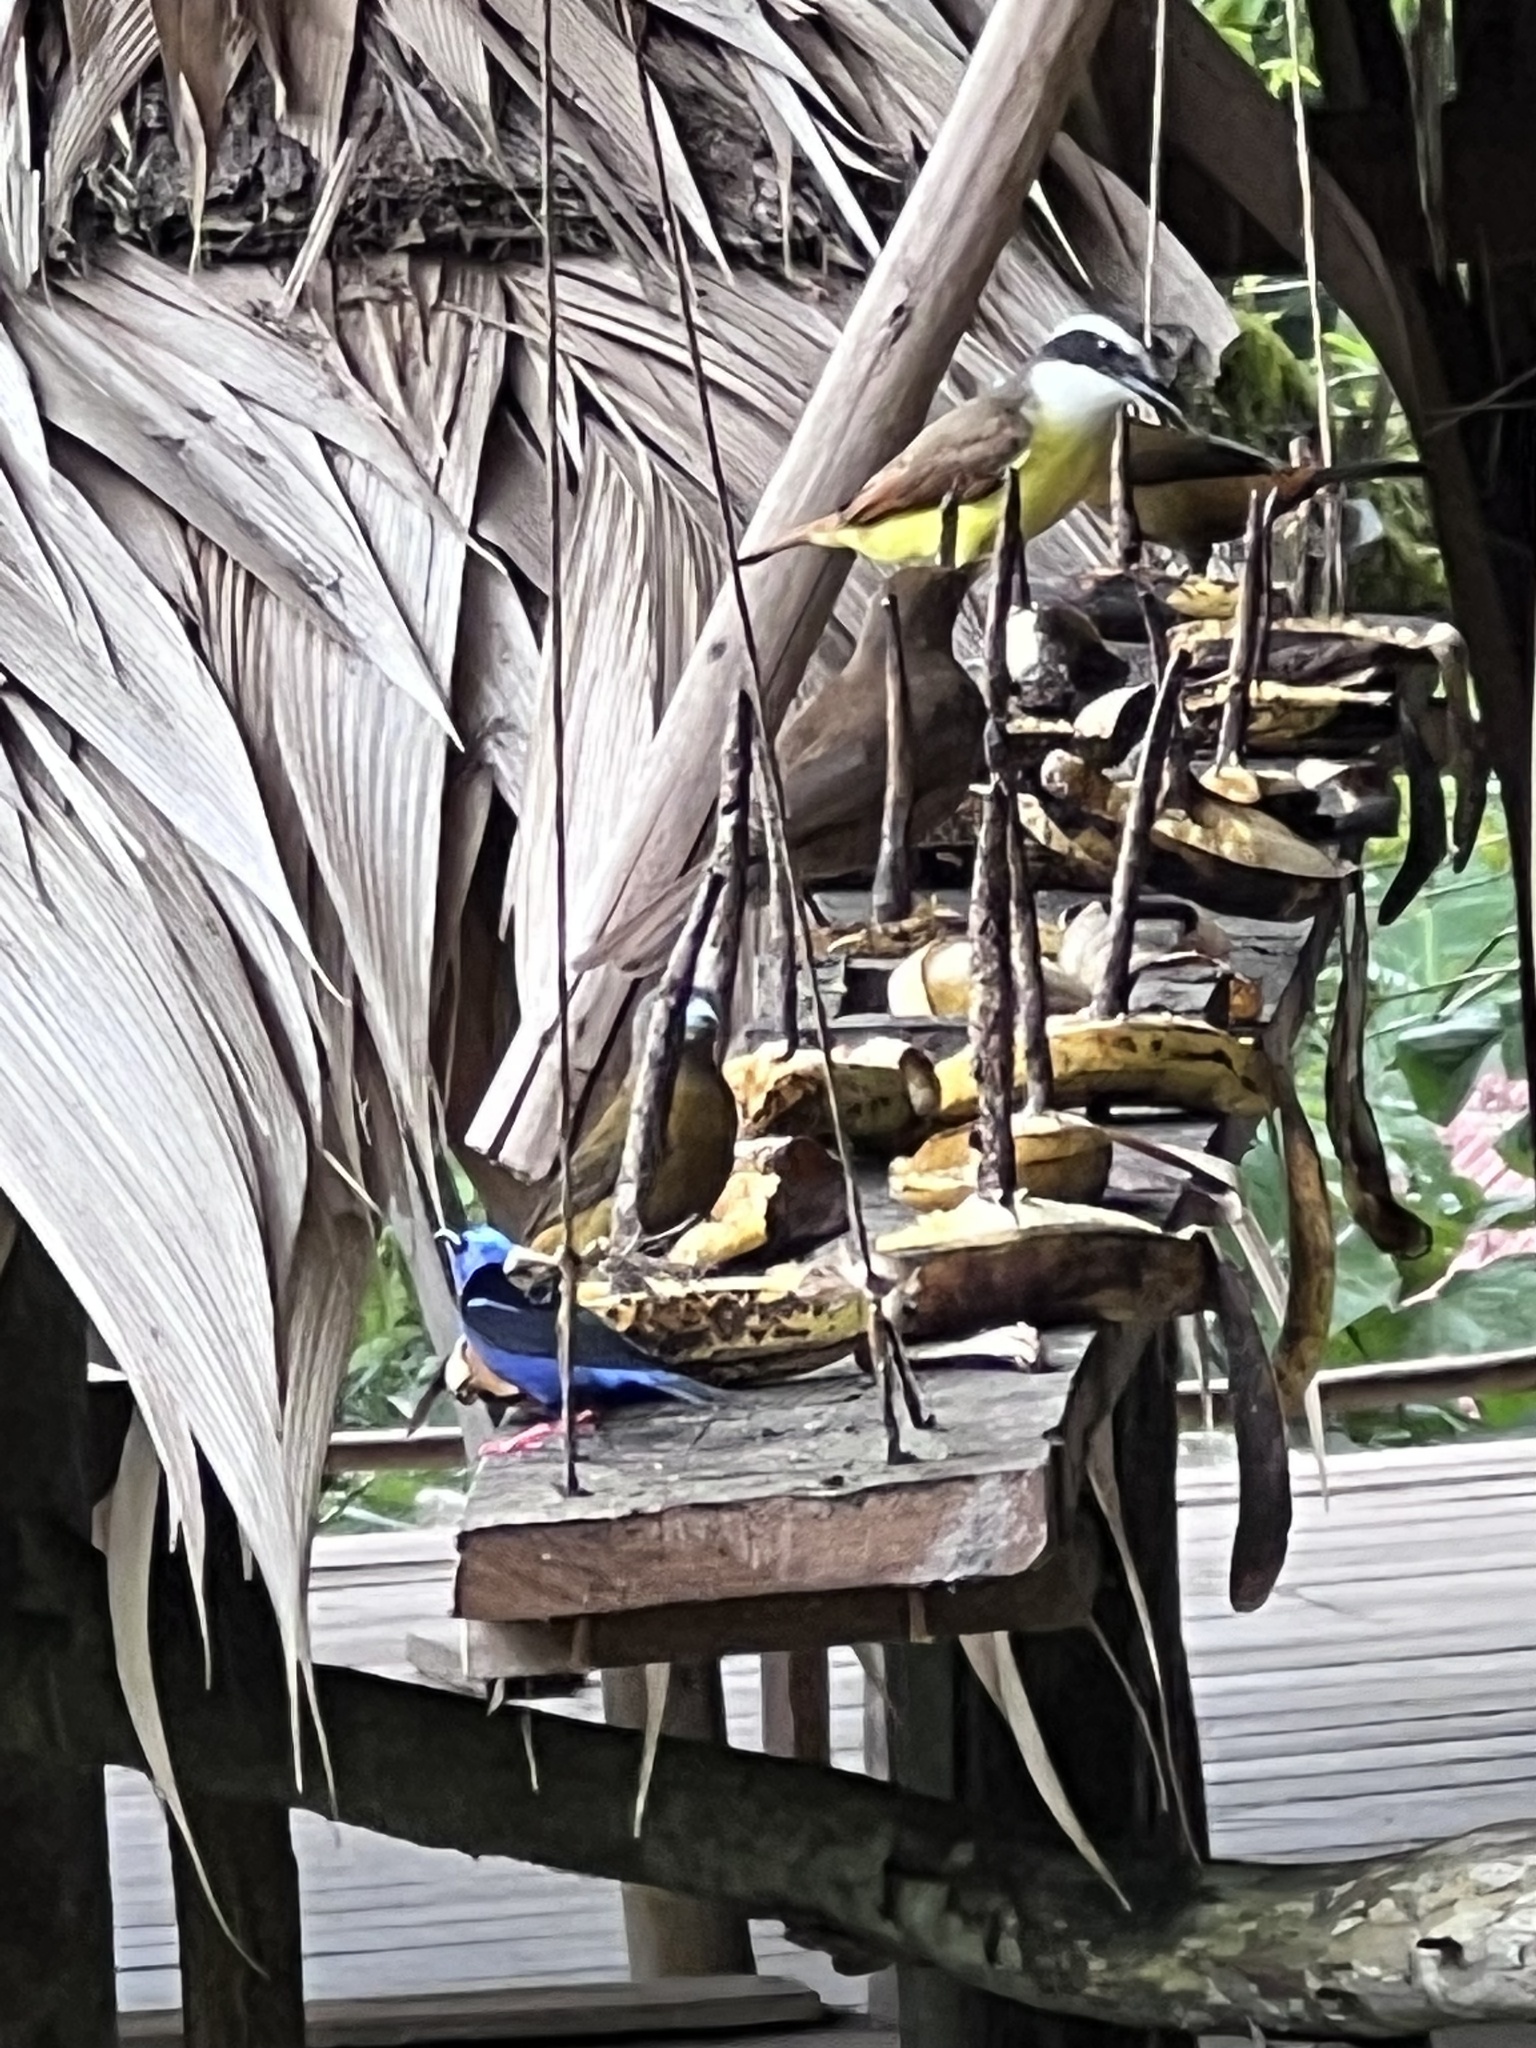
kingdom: Animalia
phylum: Chordata
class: Aves
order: Passeriformes
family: Thraupidae
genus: Cyanerpes
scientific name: Cyanerpes cyaneus
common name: Red-legged honeycreeper
